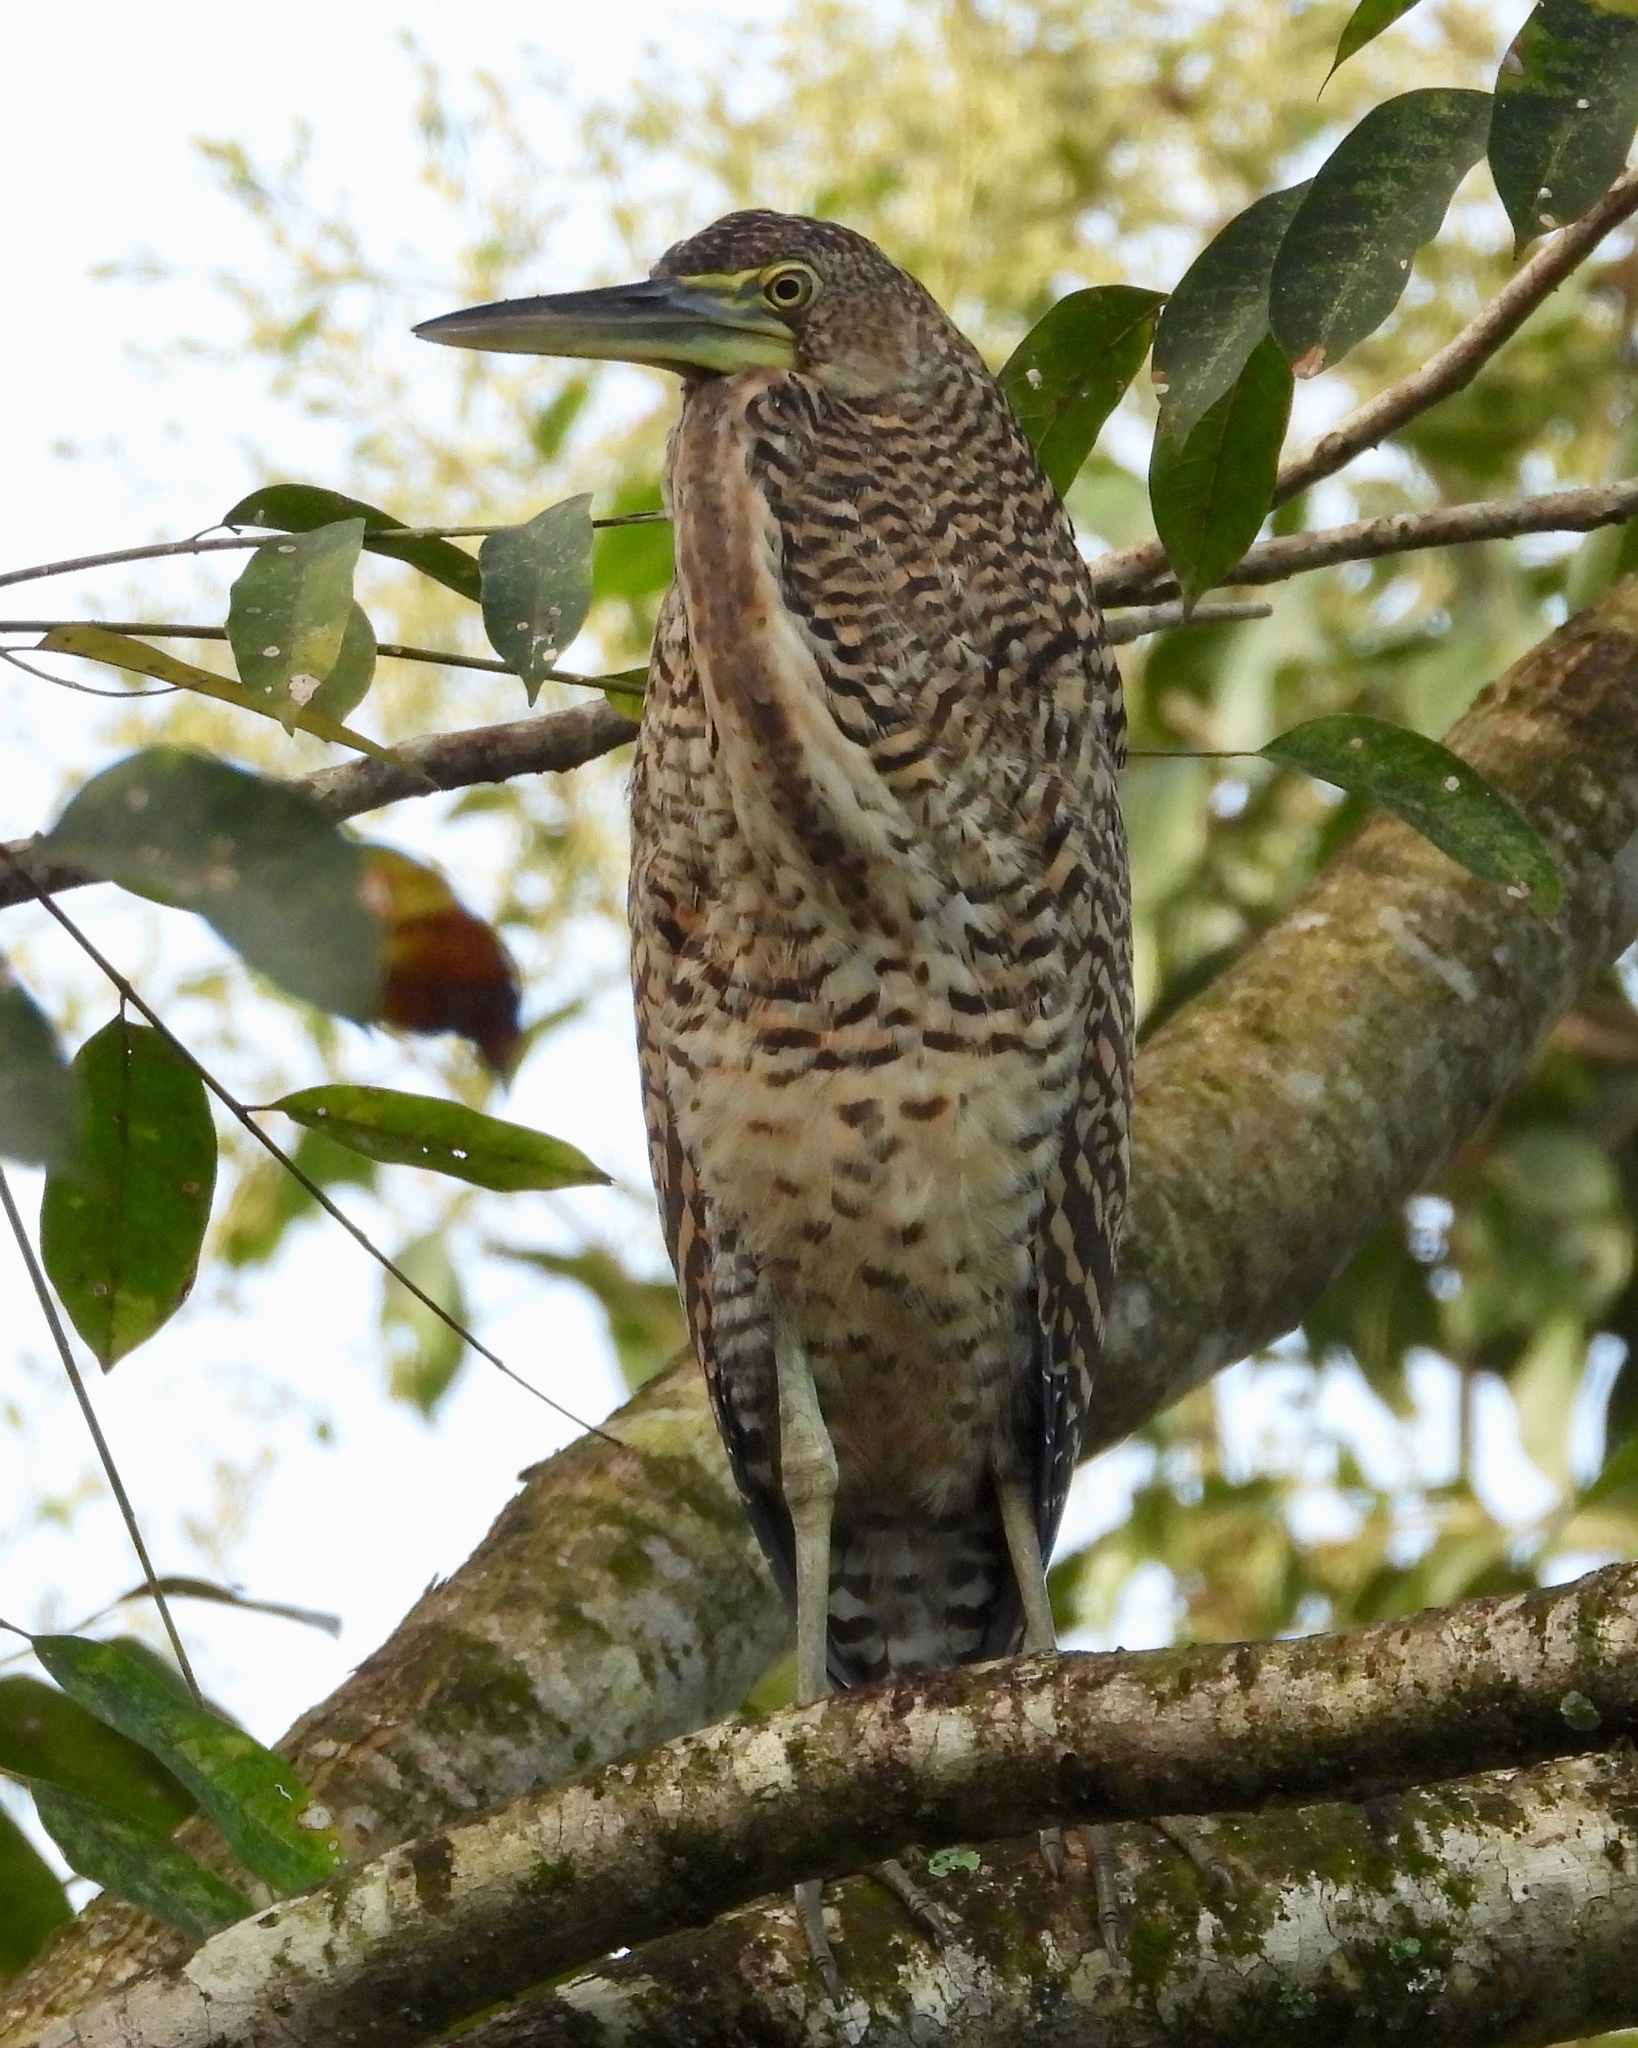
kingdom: Animalia
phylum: Chordata
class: Aves
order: Pelecaniformes
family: Ardeidae
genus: Tigrisoma
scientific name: Tigrisoma mexicanum
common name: Bare-throated tiger-heron
